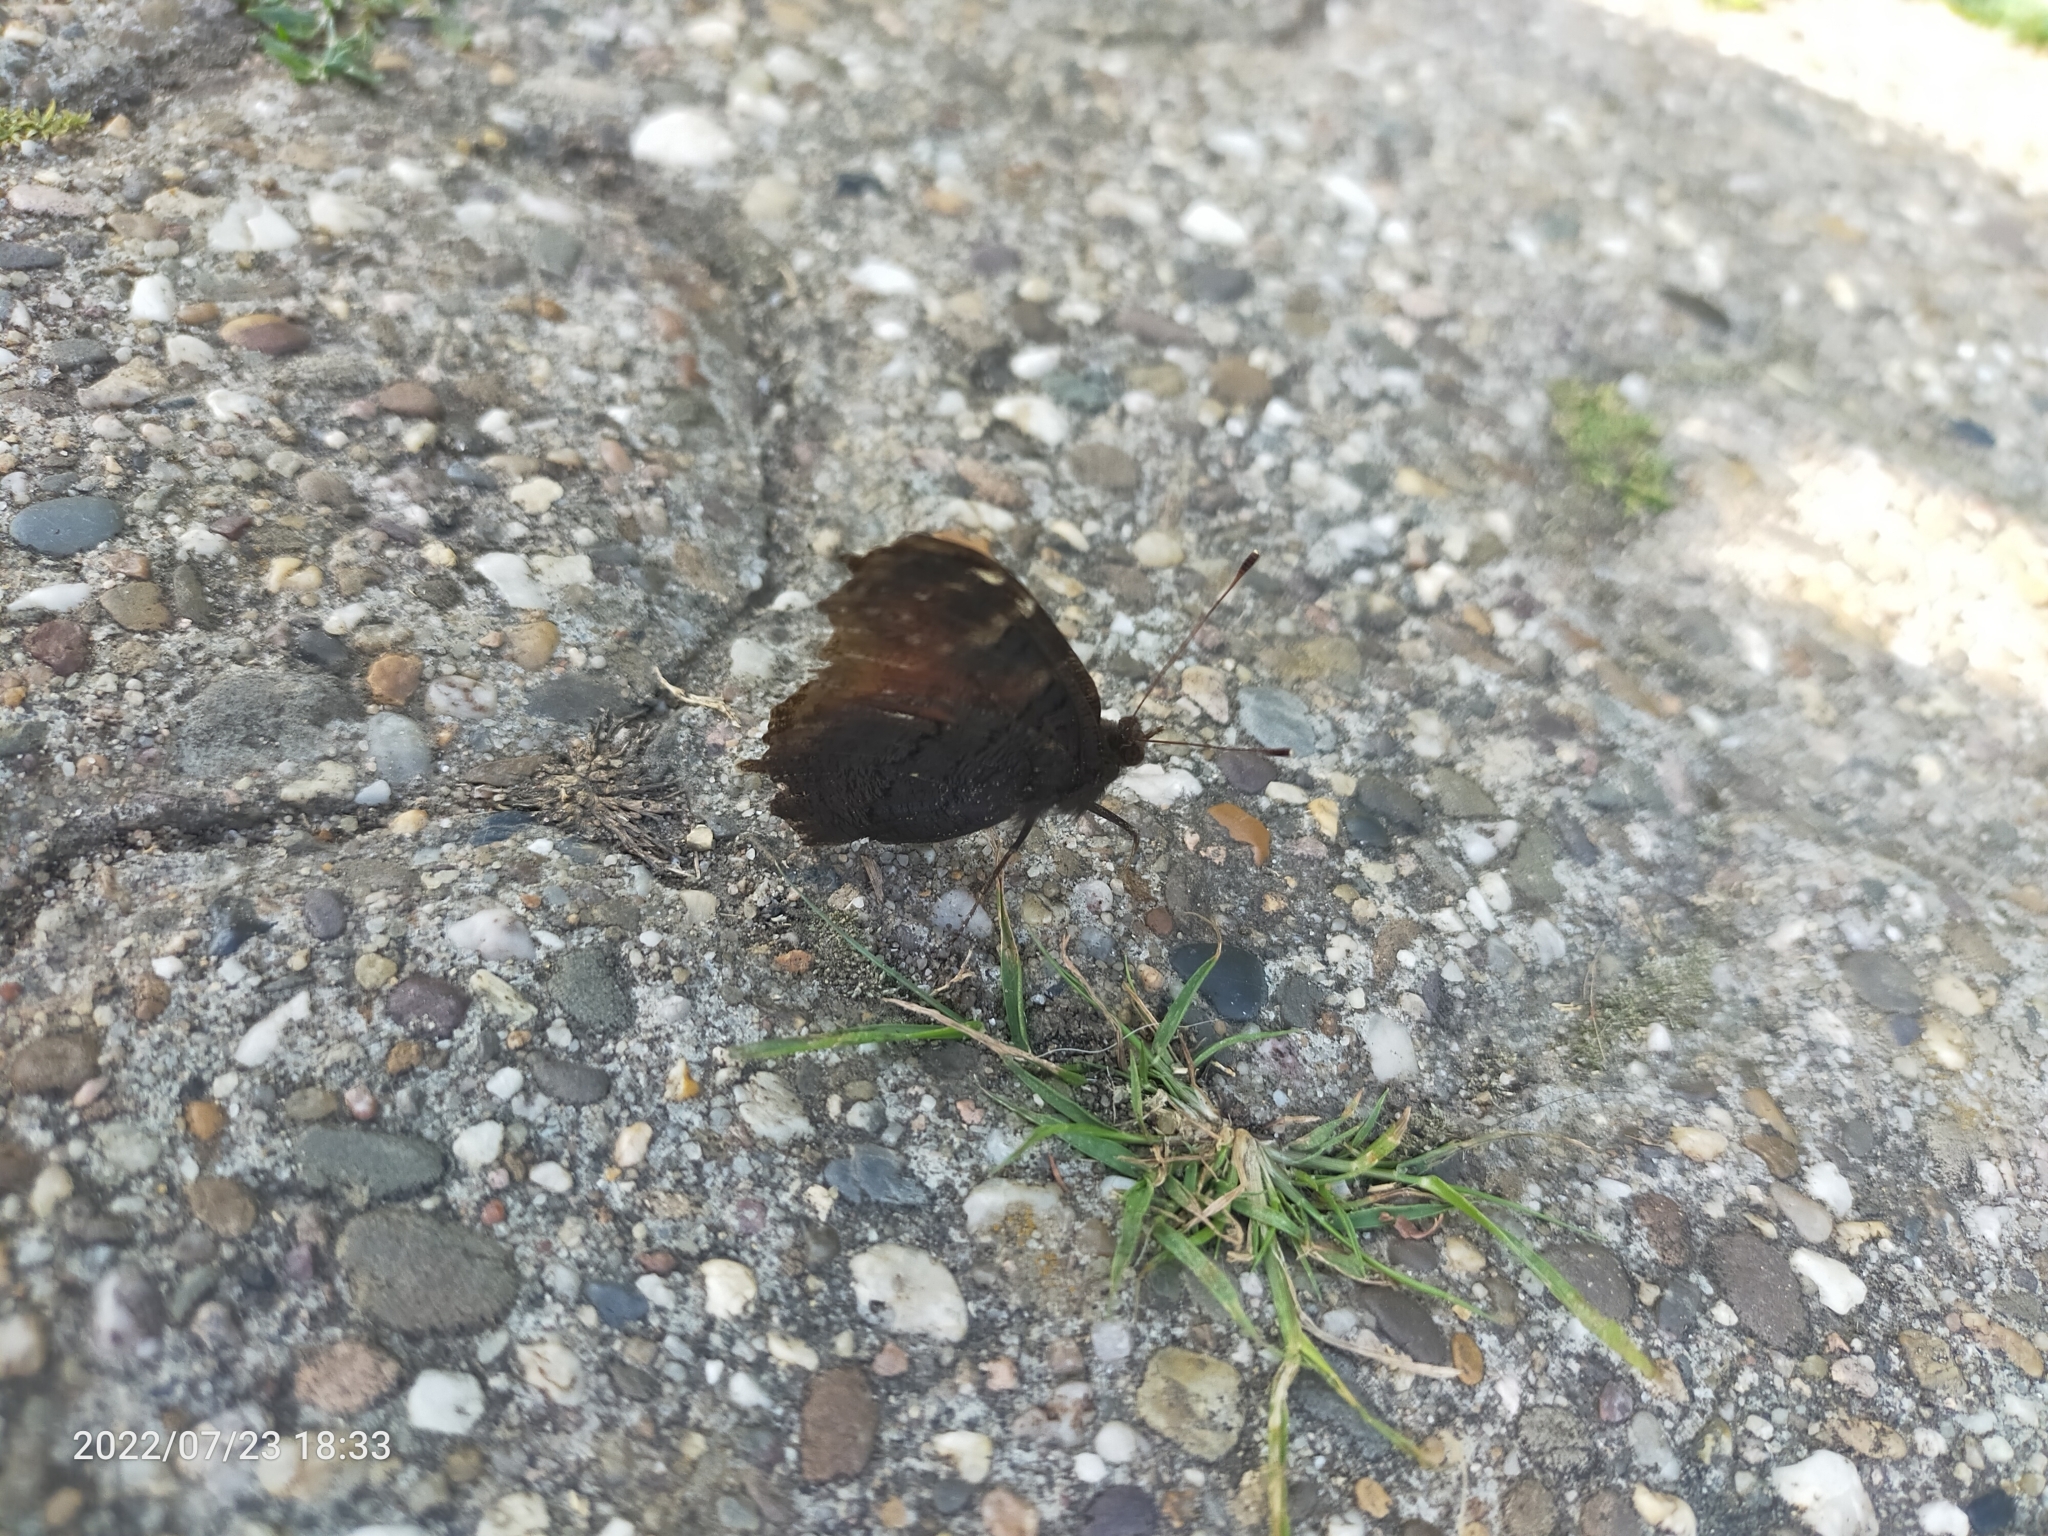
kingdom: Animalia
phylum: Arthropoda
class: Insecta
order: Lepidoptera
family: Nymphalidae
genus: Aglais
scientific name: Aglais io
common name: Peacock
